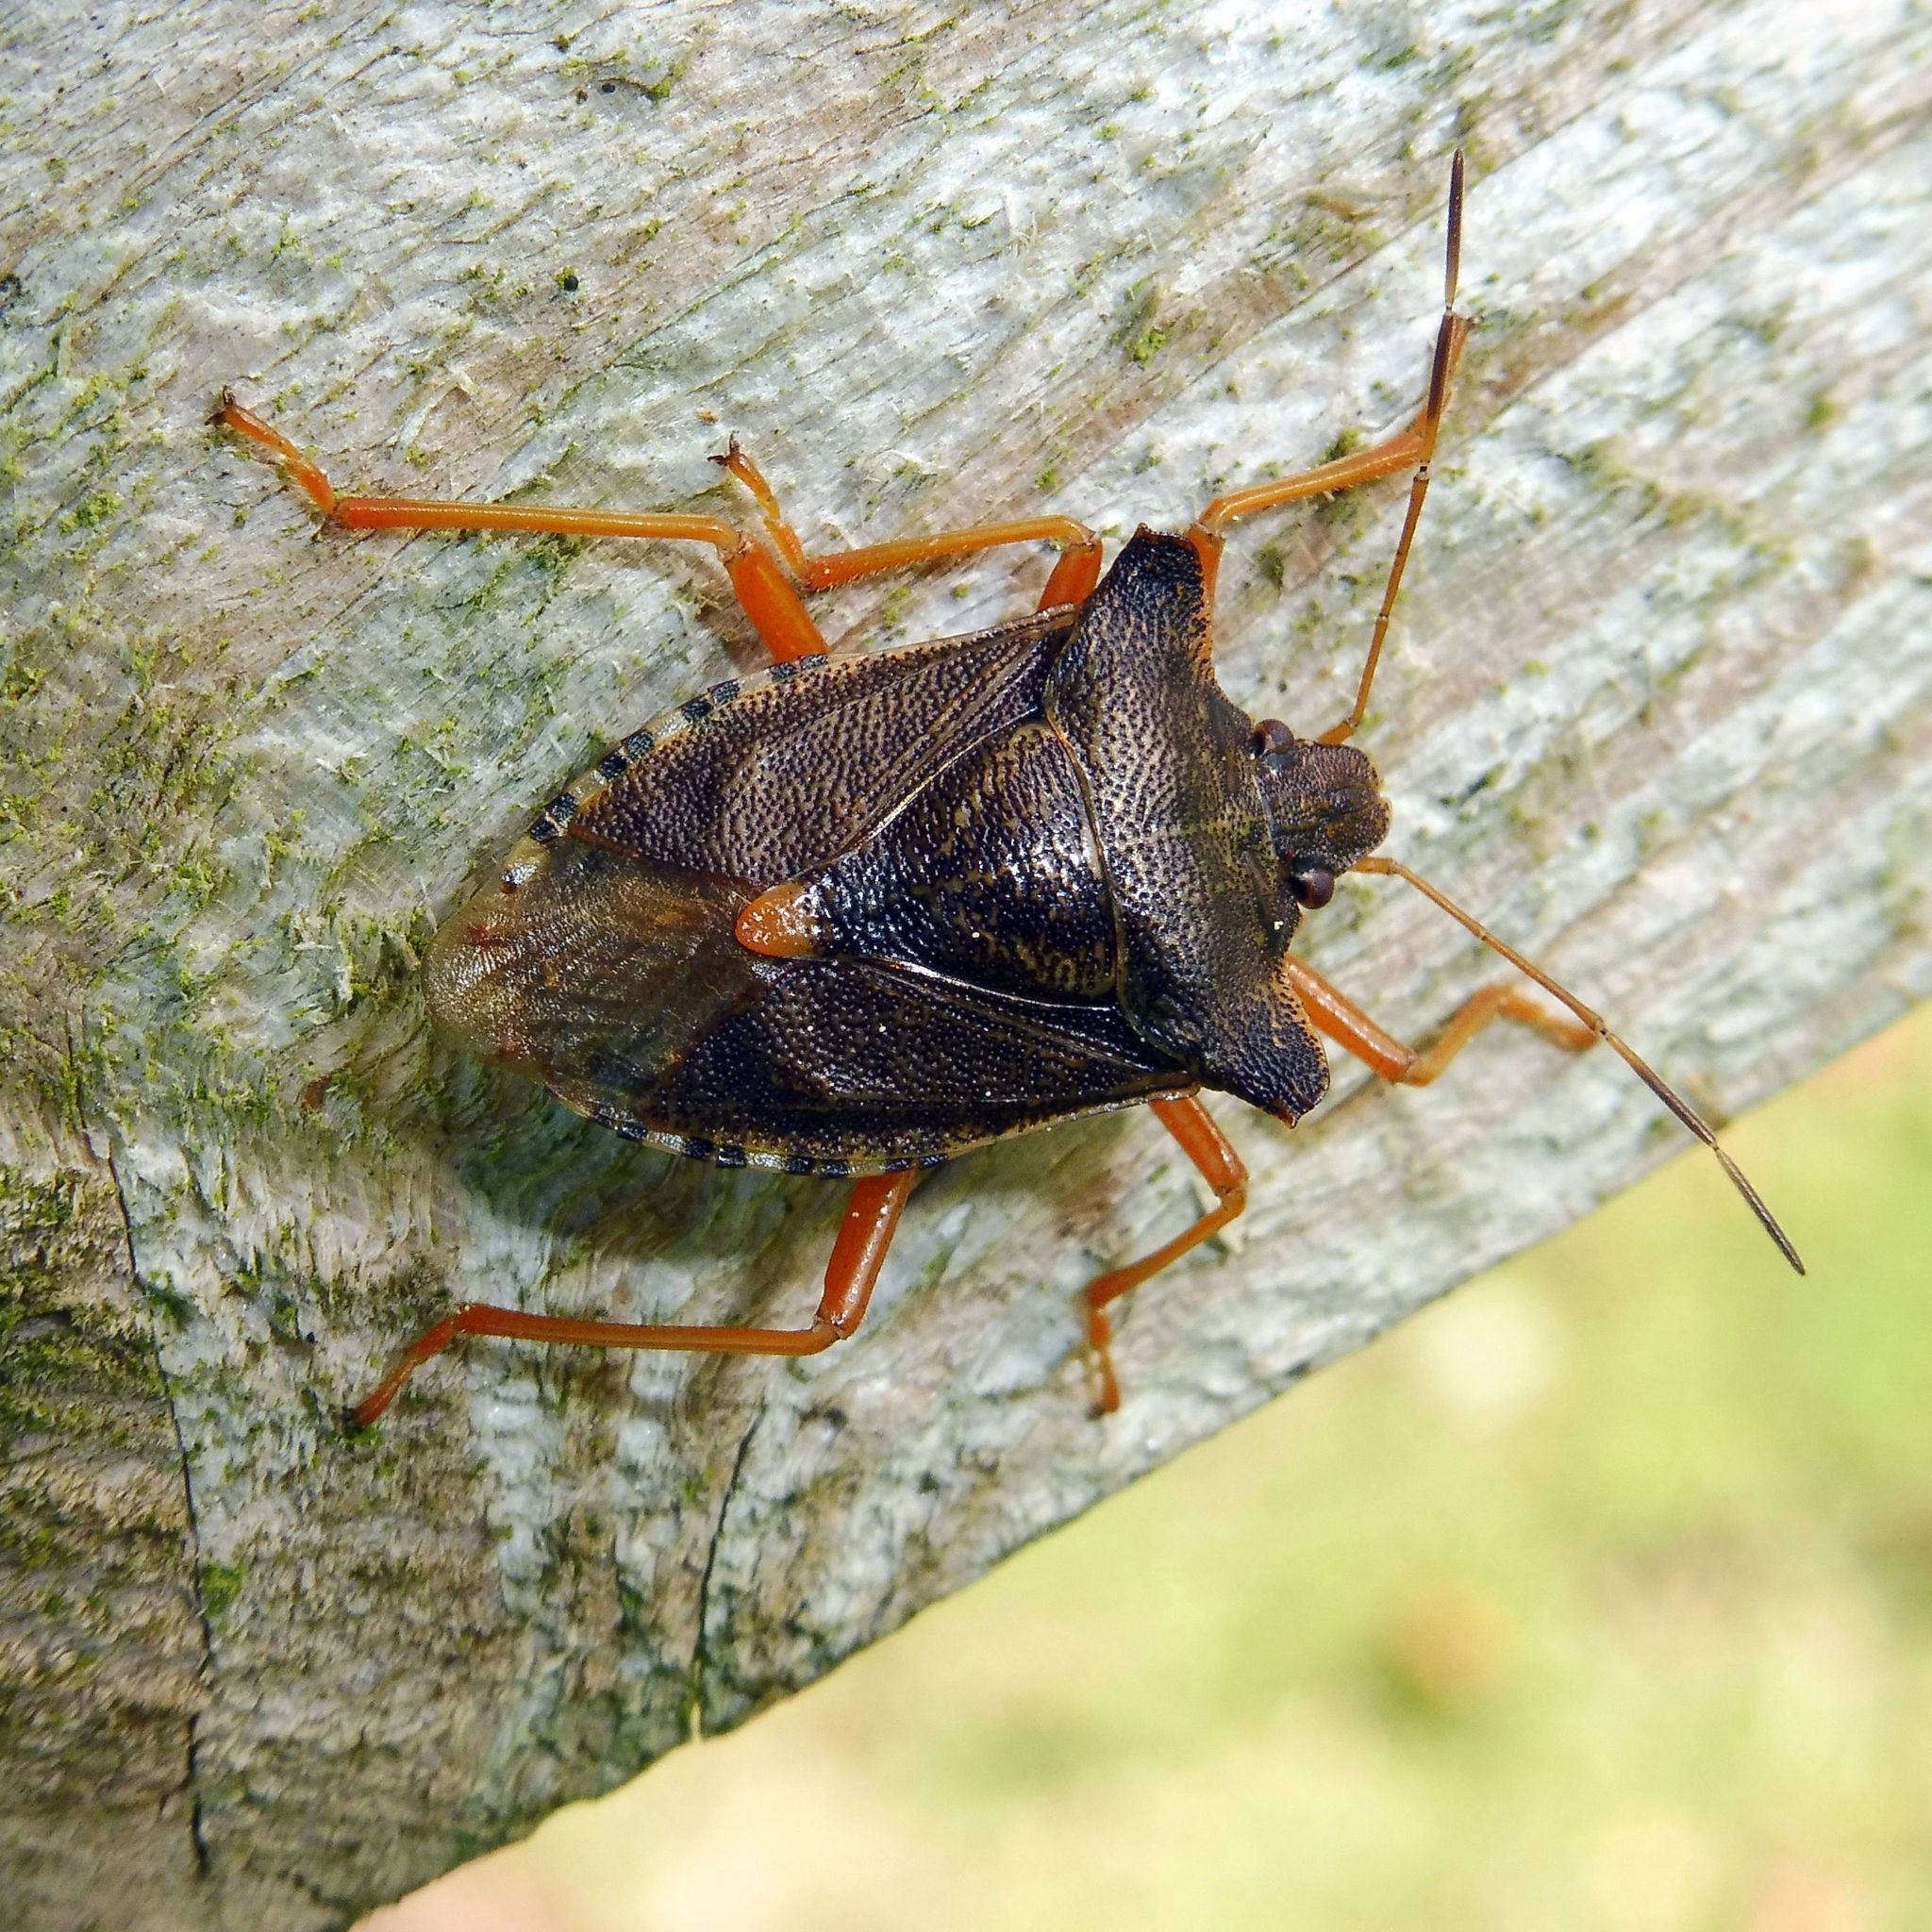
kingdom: Animalia
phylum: Arthropoda
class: Insecta
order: Hemiptera
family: Pentatomidae
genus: Pentatoma
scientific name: Pentatoma rufipes
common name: Forest bug
